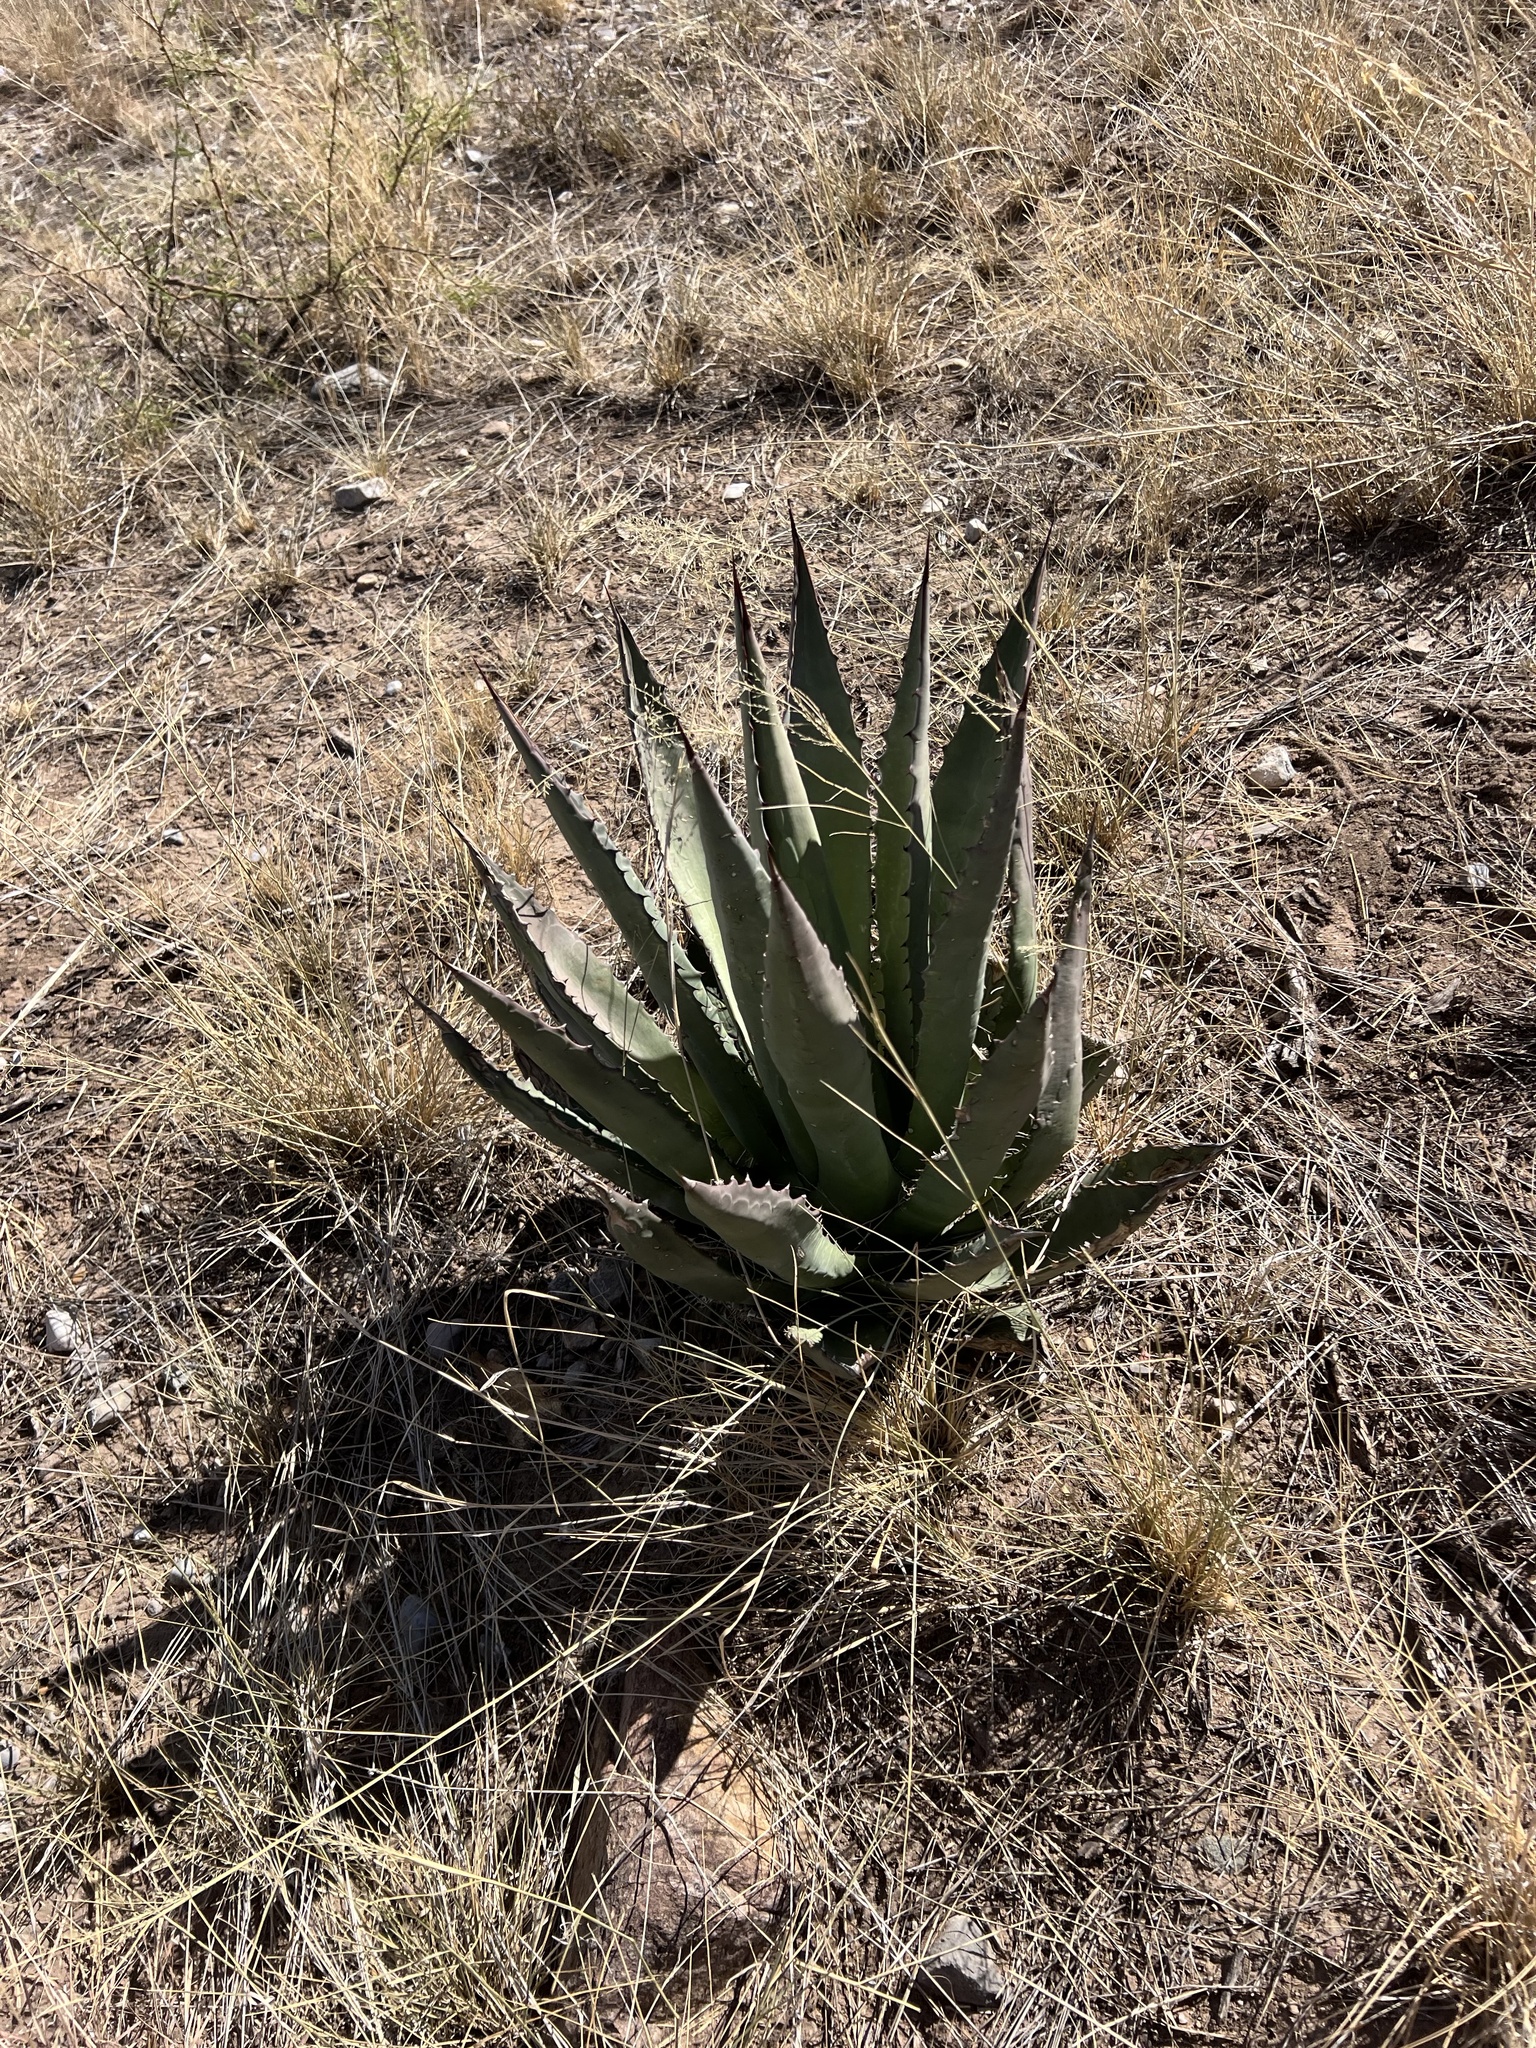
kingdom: Plantae
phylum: Tracheophyta
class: Liliopsida
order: Asparagales
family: Asparagaceae
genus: Agave
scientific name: Agave palmeri
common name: Palmer agave
